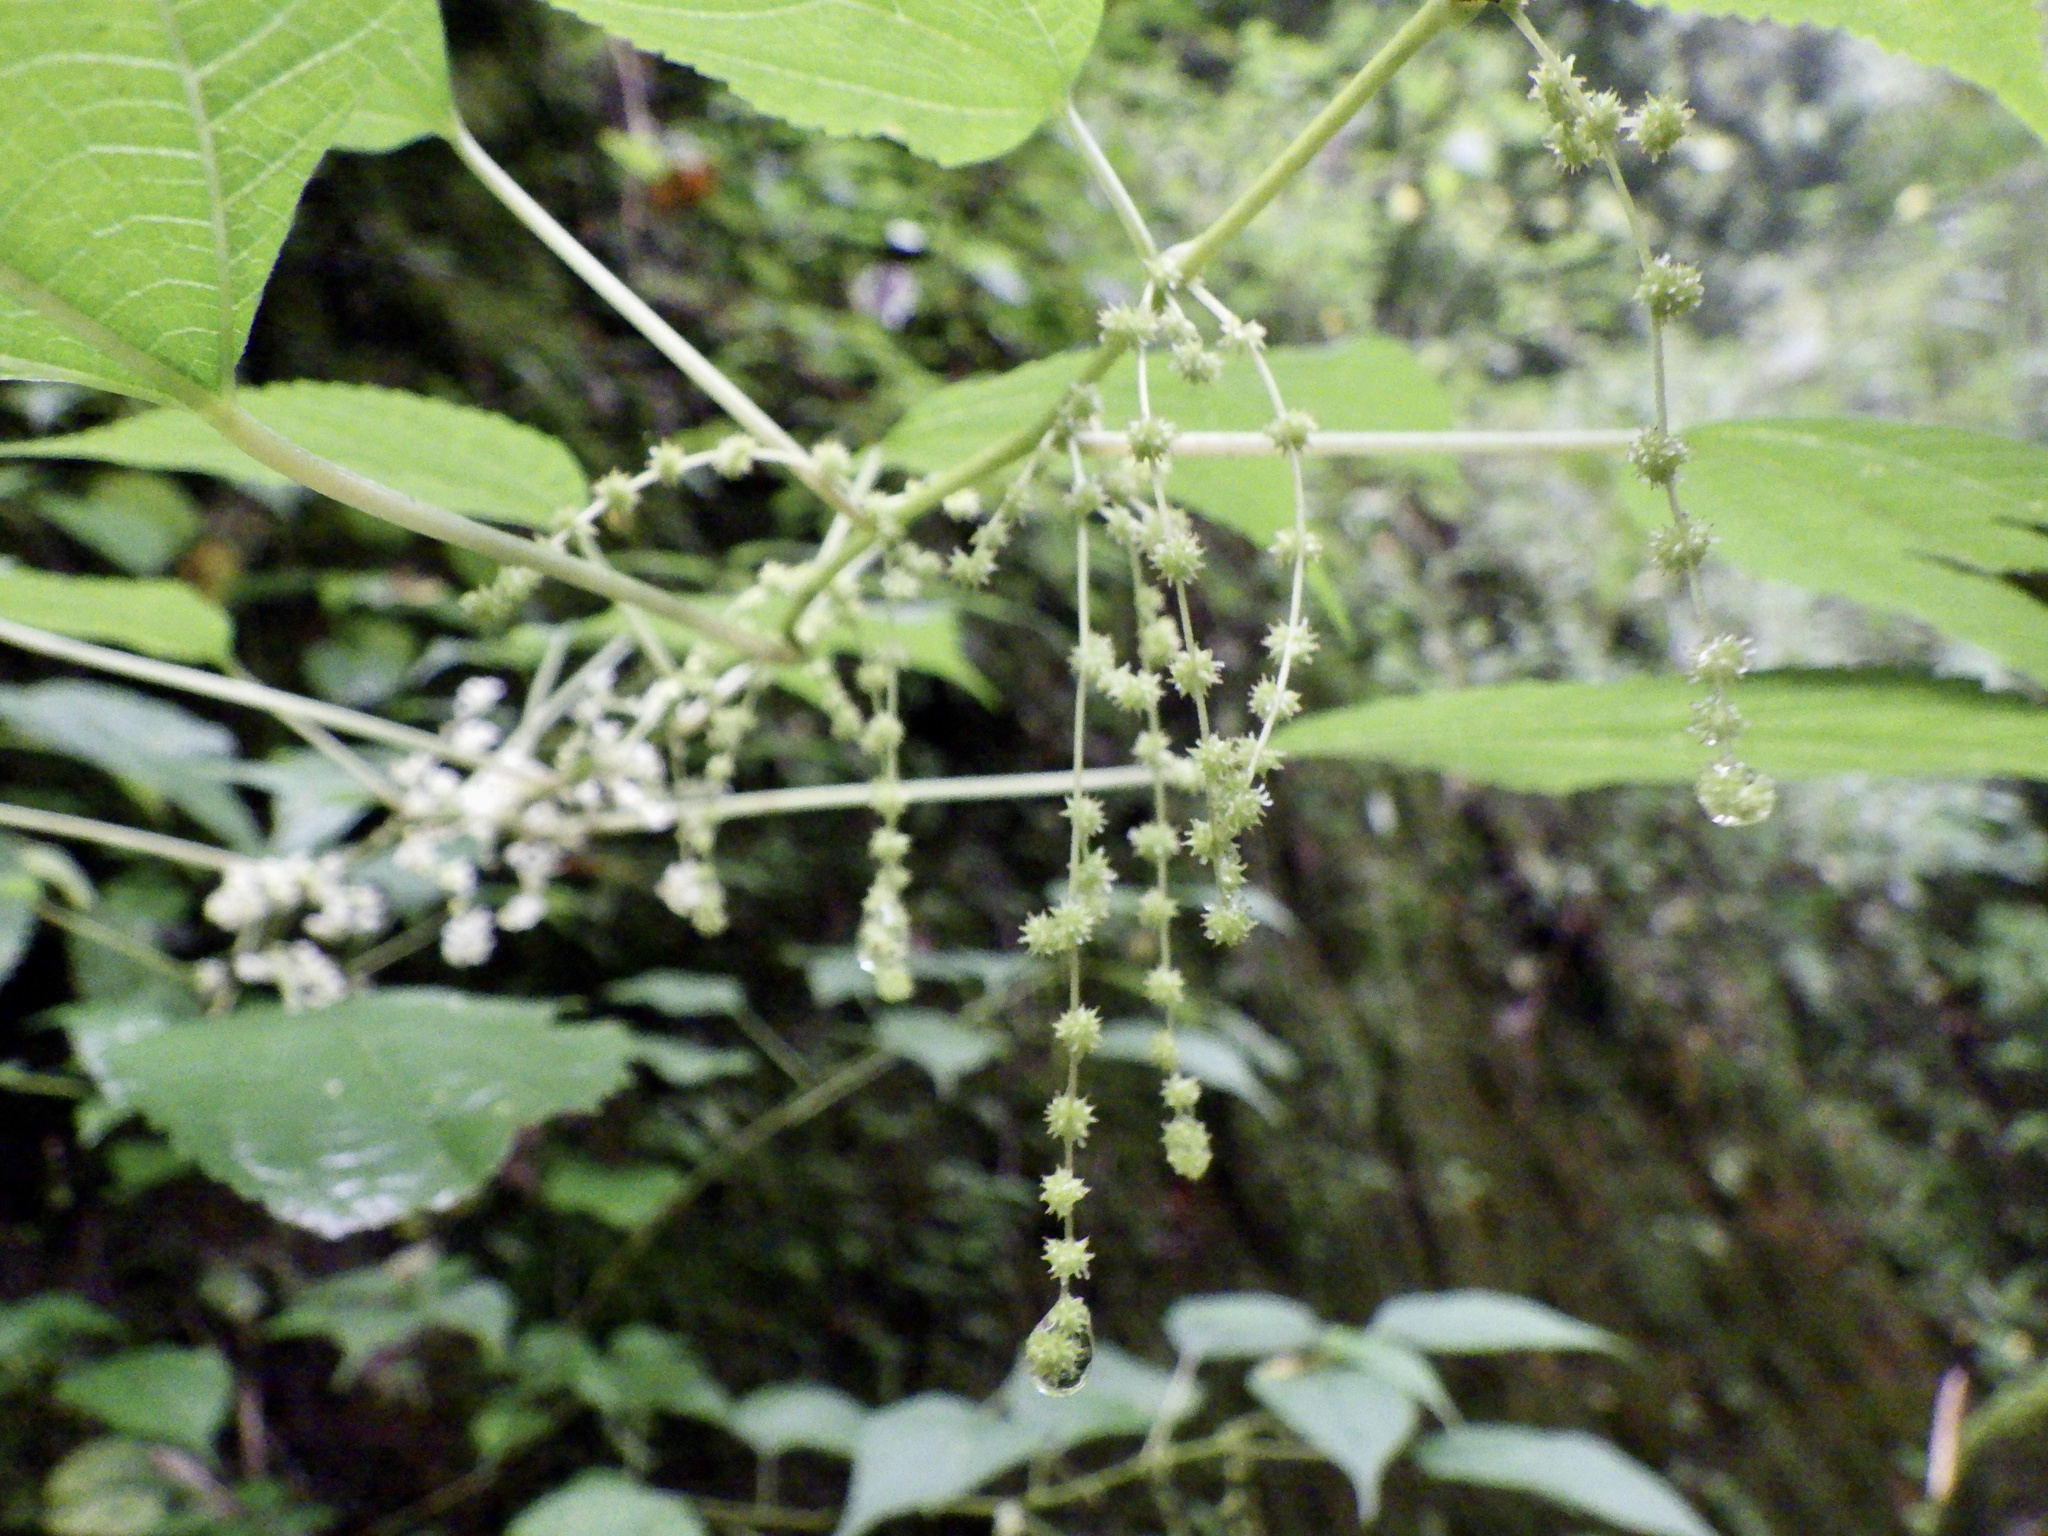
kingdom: Plantae
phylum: Tracheophyta
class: Magnoliopsida
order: Rosales
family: Urticaceae
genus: Boehmeria
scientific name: Boehmeria nivea
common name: Ramie chinese grass
